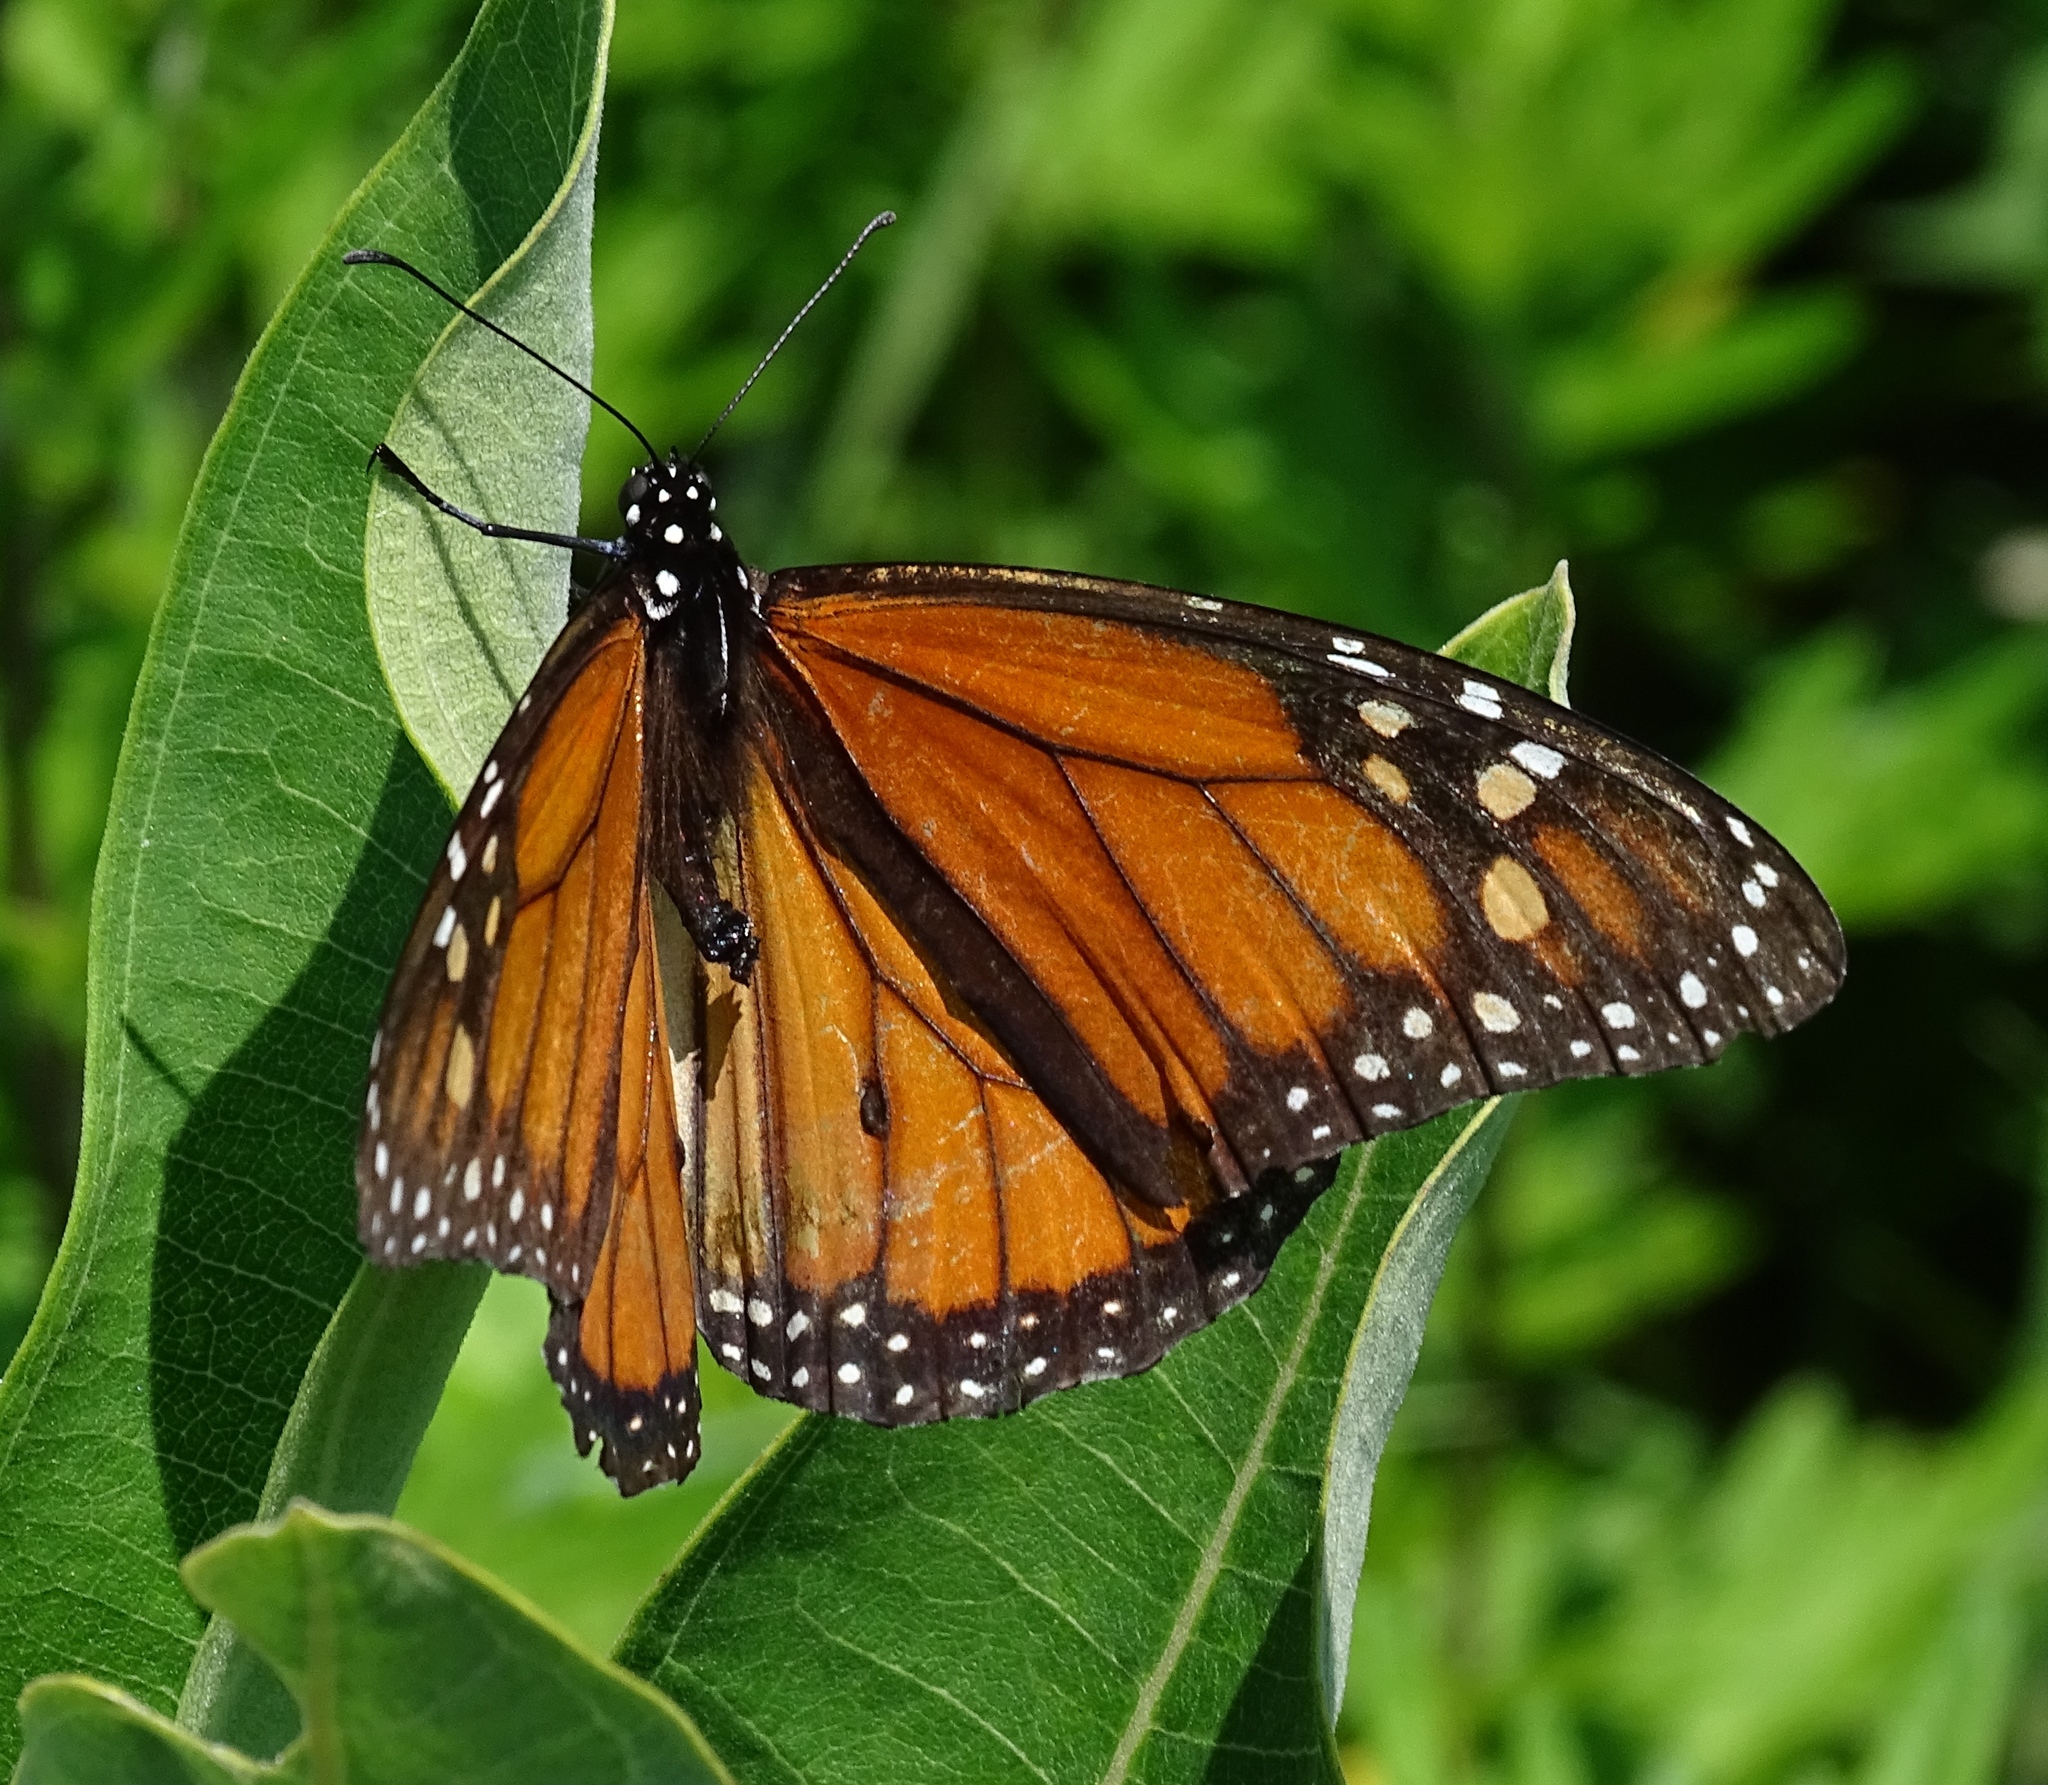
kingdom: Animalia
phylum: Arthropoda
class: Insecta
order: Lepidoptera
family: Nymphalidae
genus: Danaus
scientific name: Danaus plexippus
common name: Monarch
